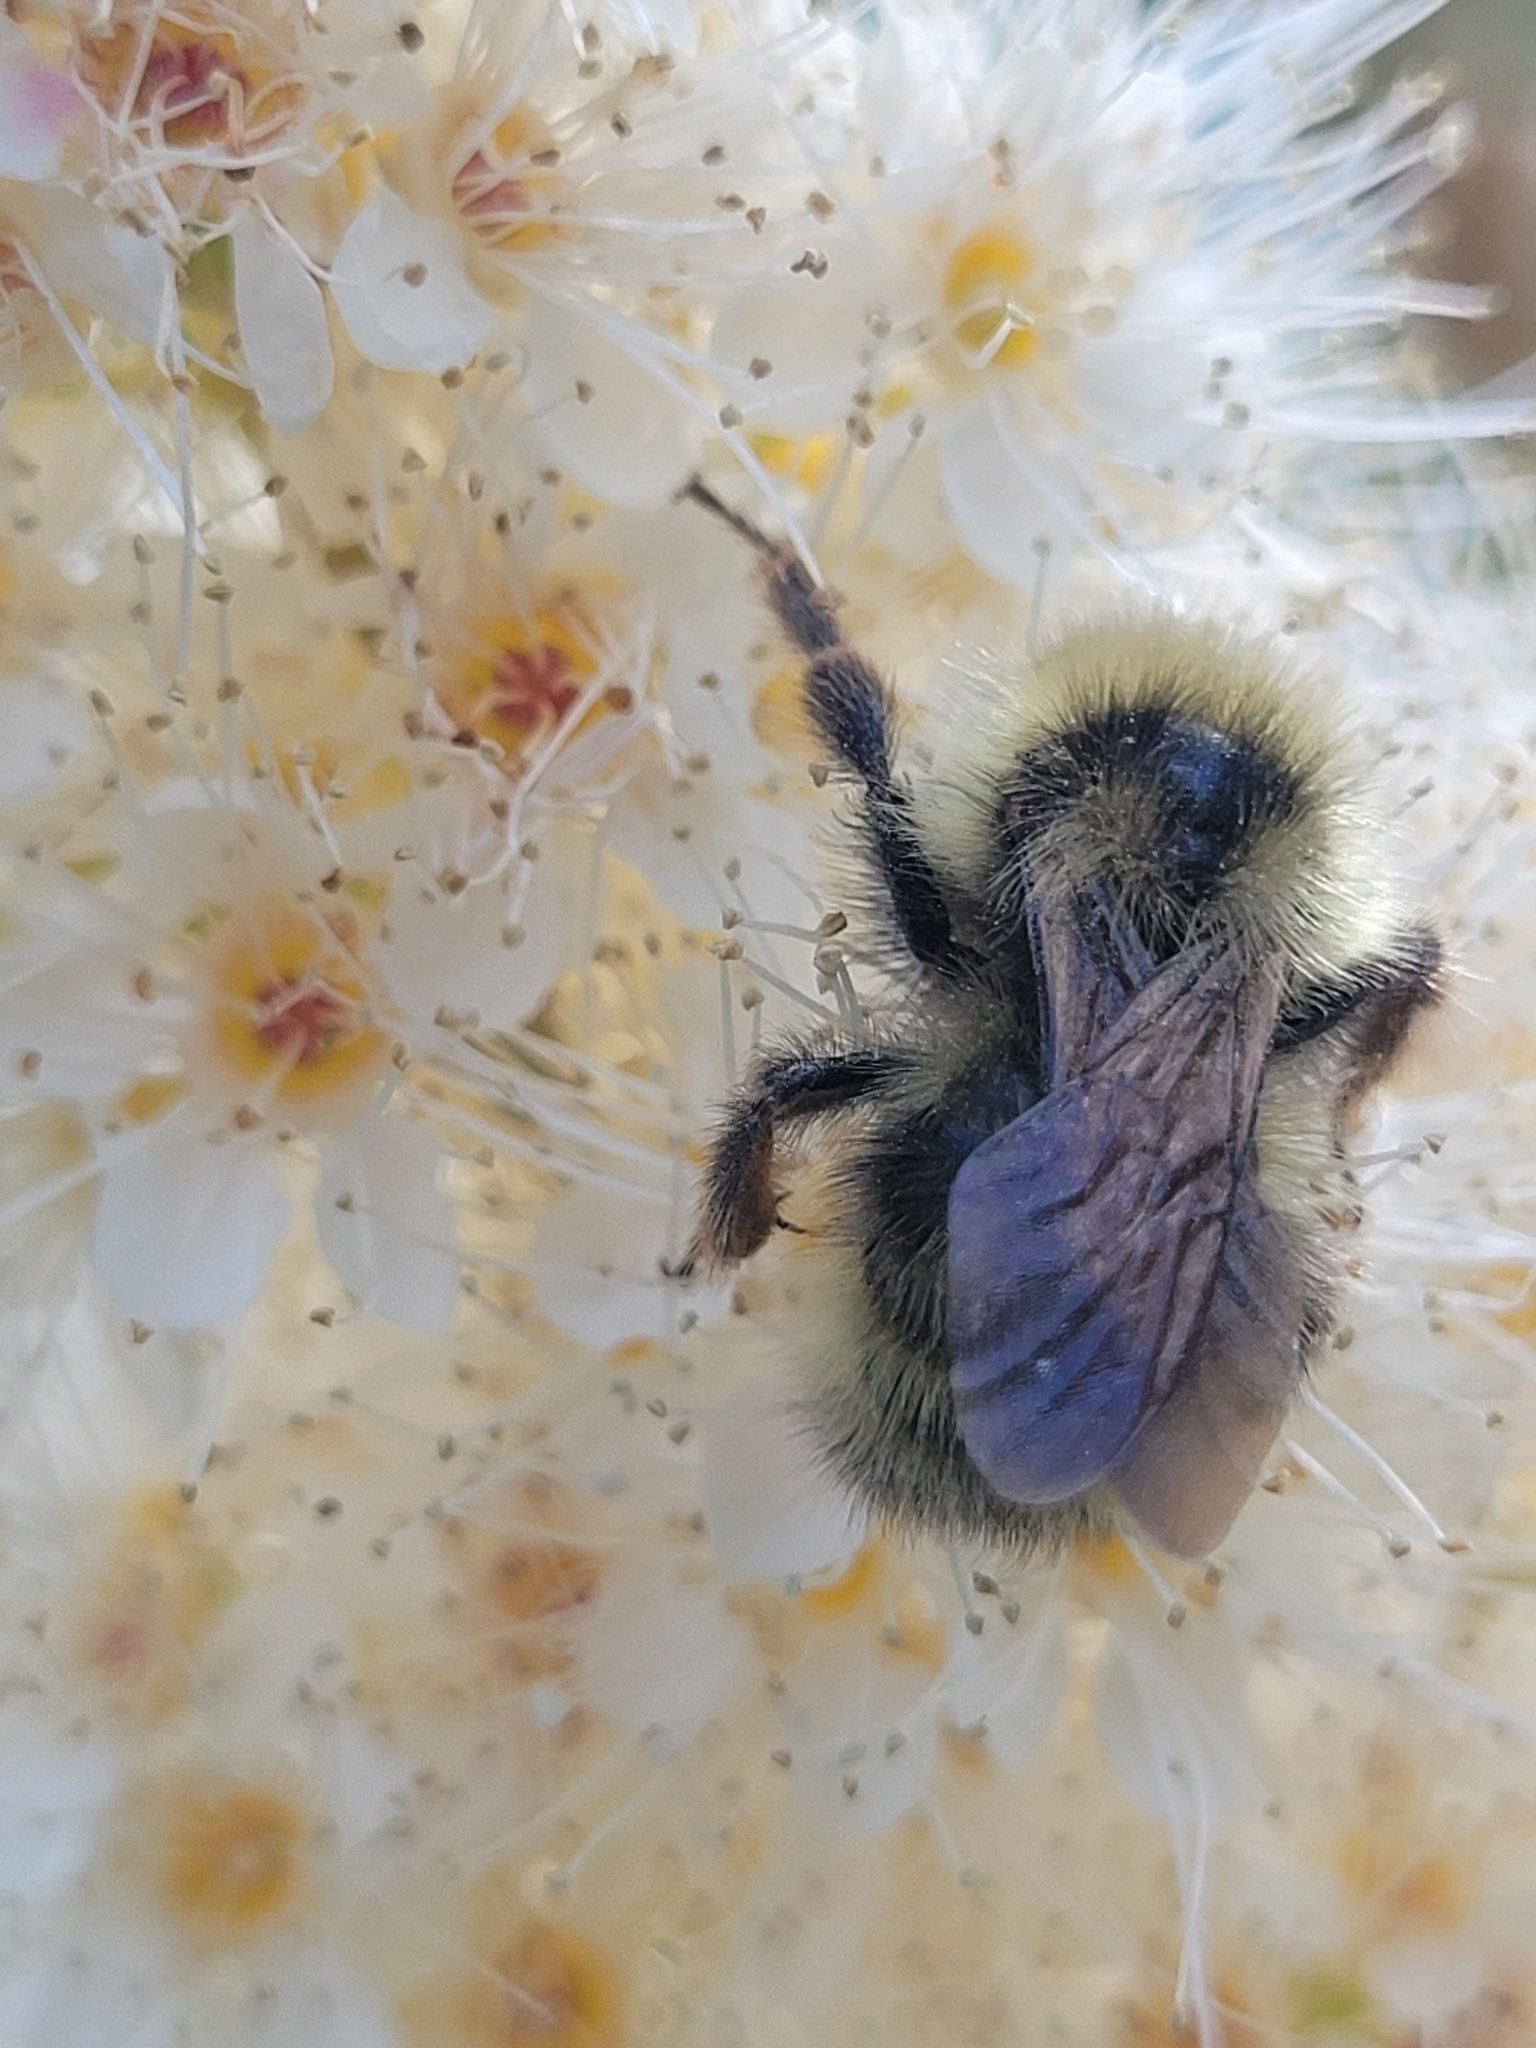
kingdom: Animalia
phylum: Arthropoda
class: Insecta
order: Hymenoptera
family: Apidae
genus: Bombus
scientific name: Bombus flavidus
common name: Fernald cuckoo bumble bee
